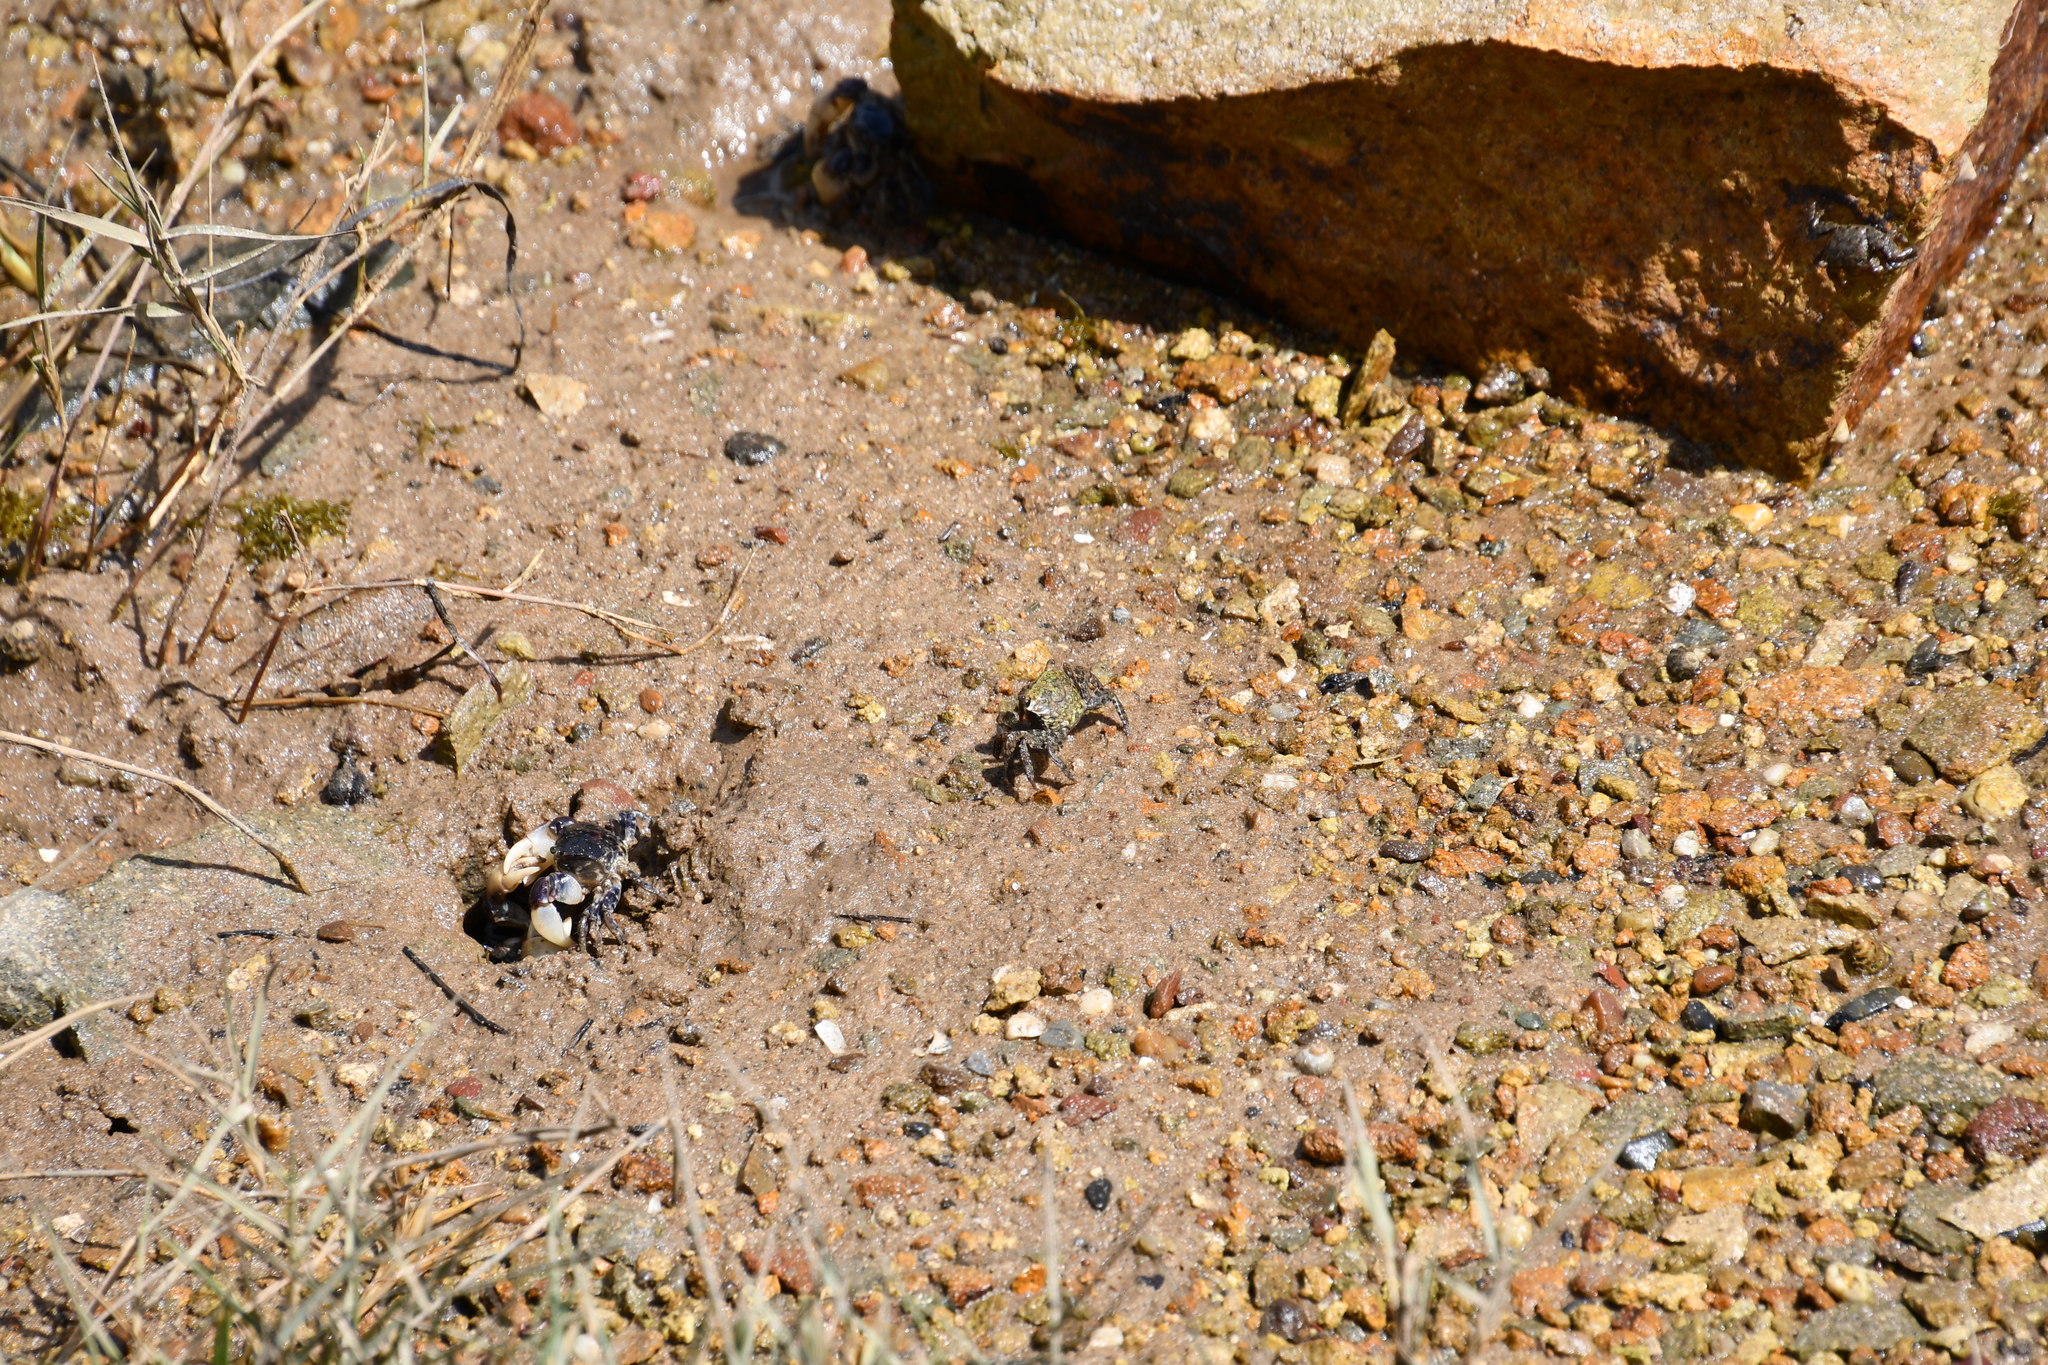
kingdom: Animalia
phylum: Arthropoda
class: Malacostraca
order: Decapoda
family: Sesarmidae
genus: Parasesarma
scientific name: Parasesarma erythodactylum
